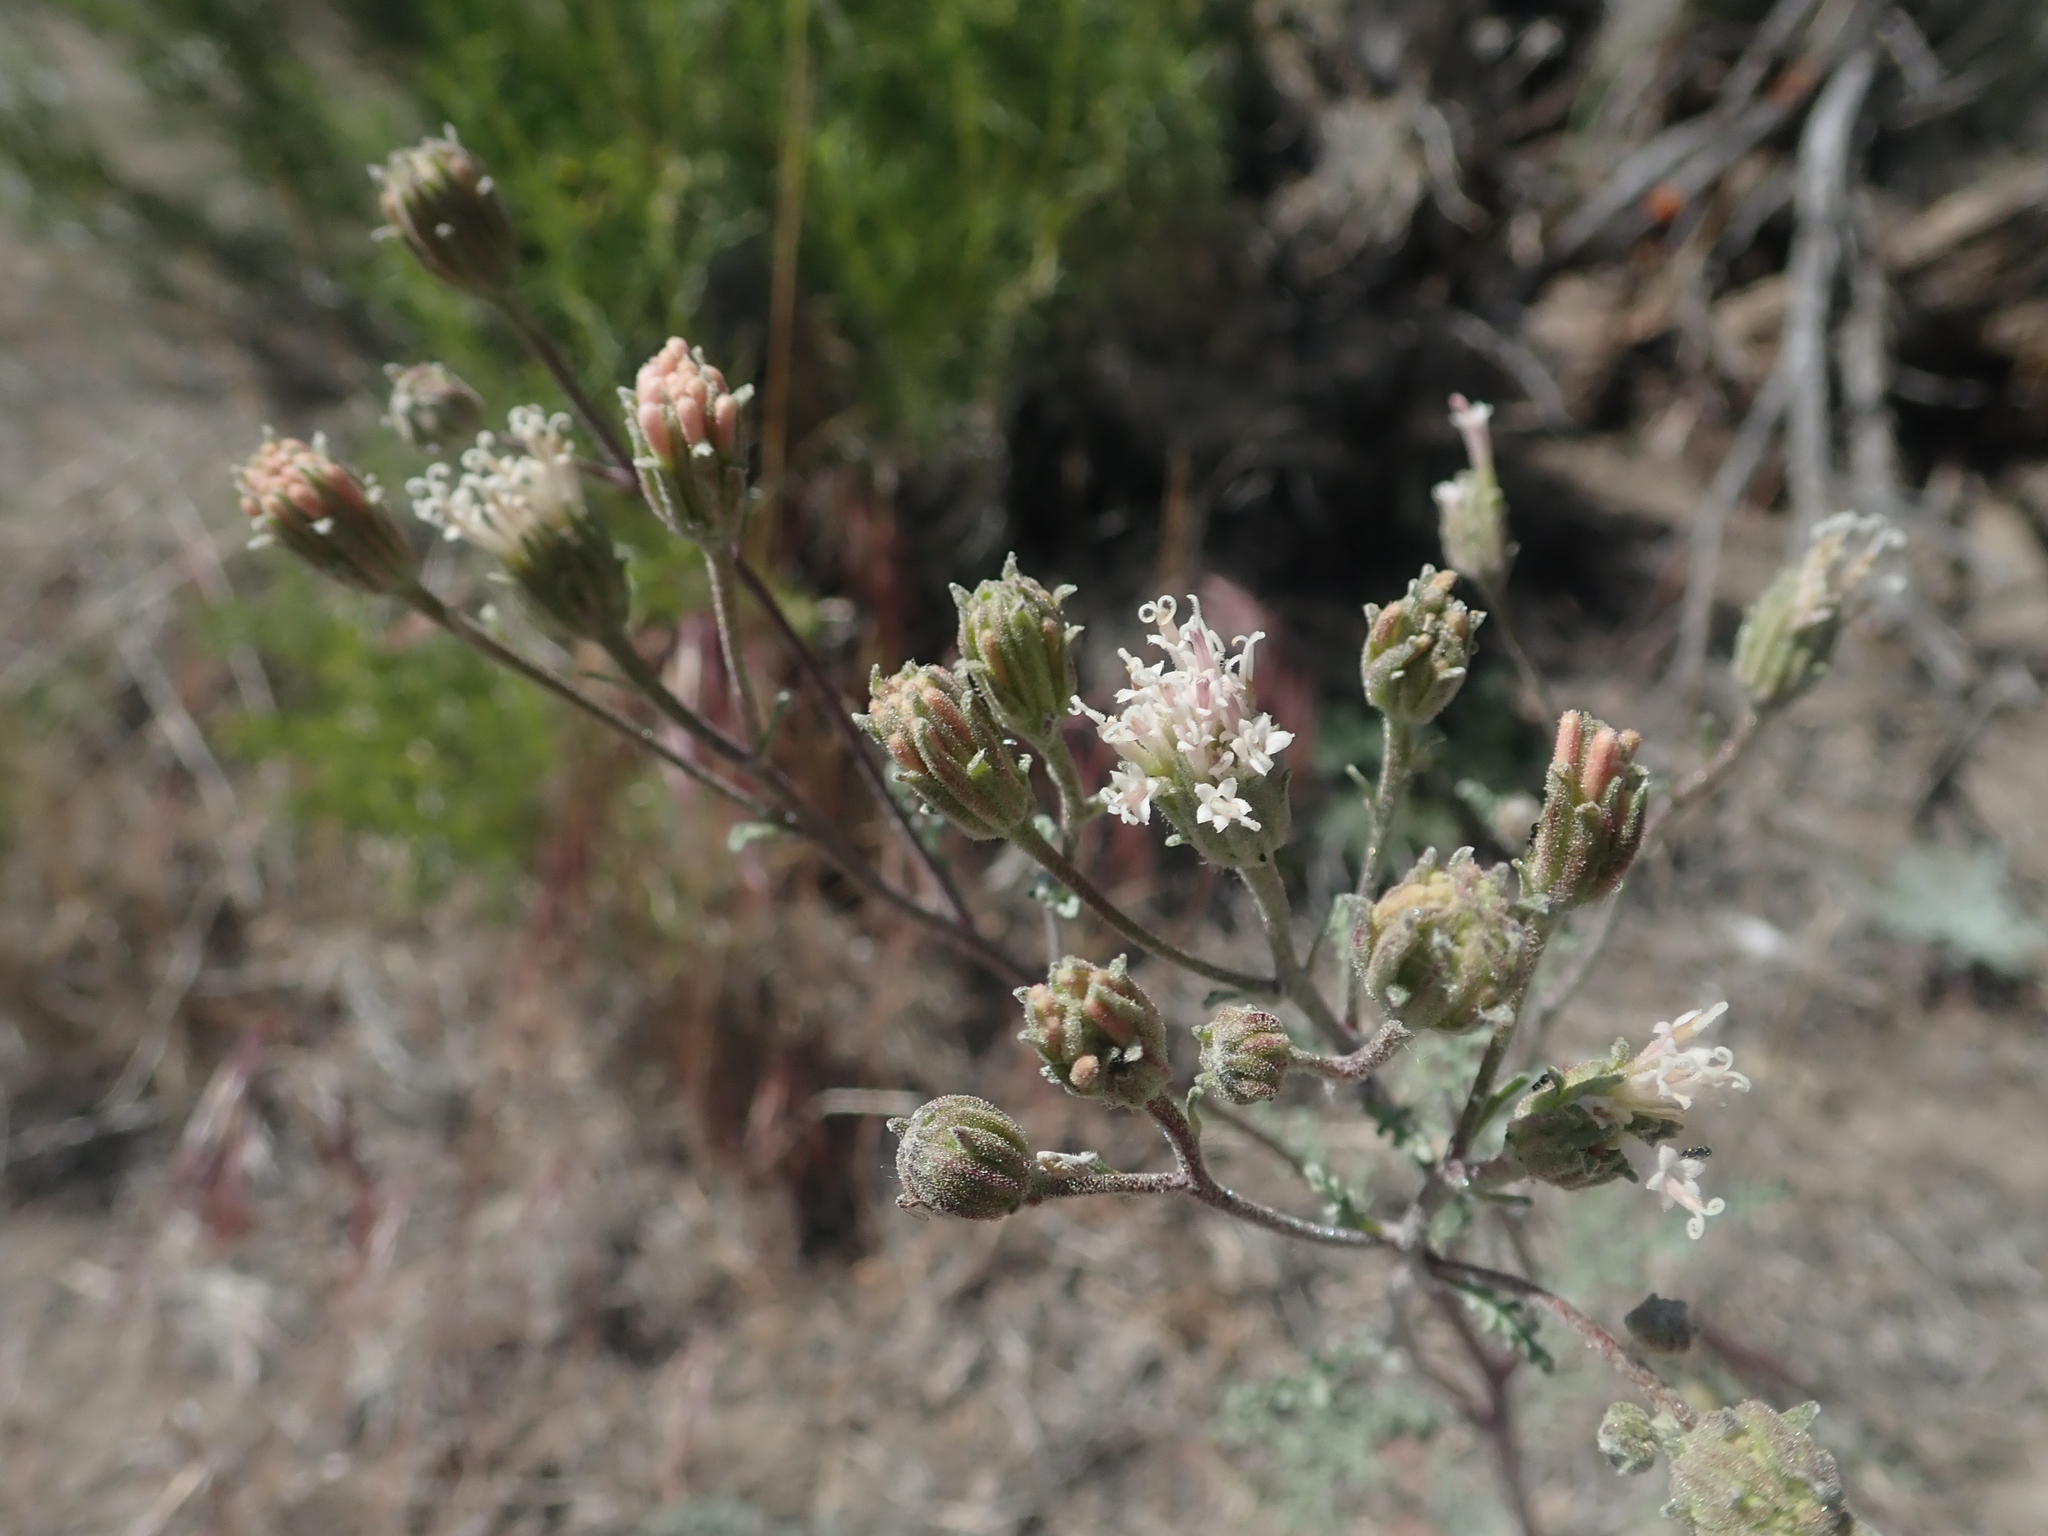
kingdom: Plantae
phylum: Tracheophyta
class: Magnoliopsida
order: Asterales
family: Asteraceae
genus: Chaenactis
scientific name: Chaenactis douglasii
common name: Hoary pincushion
